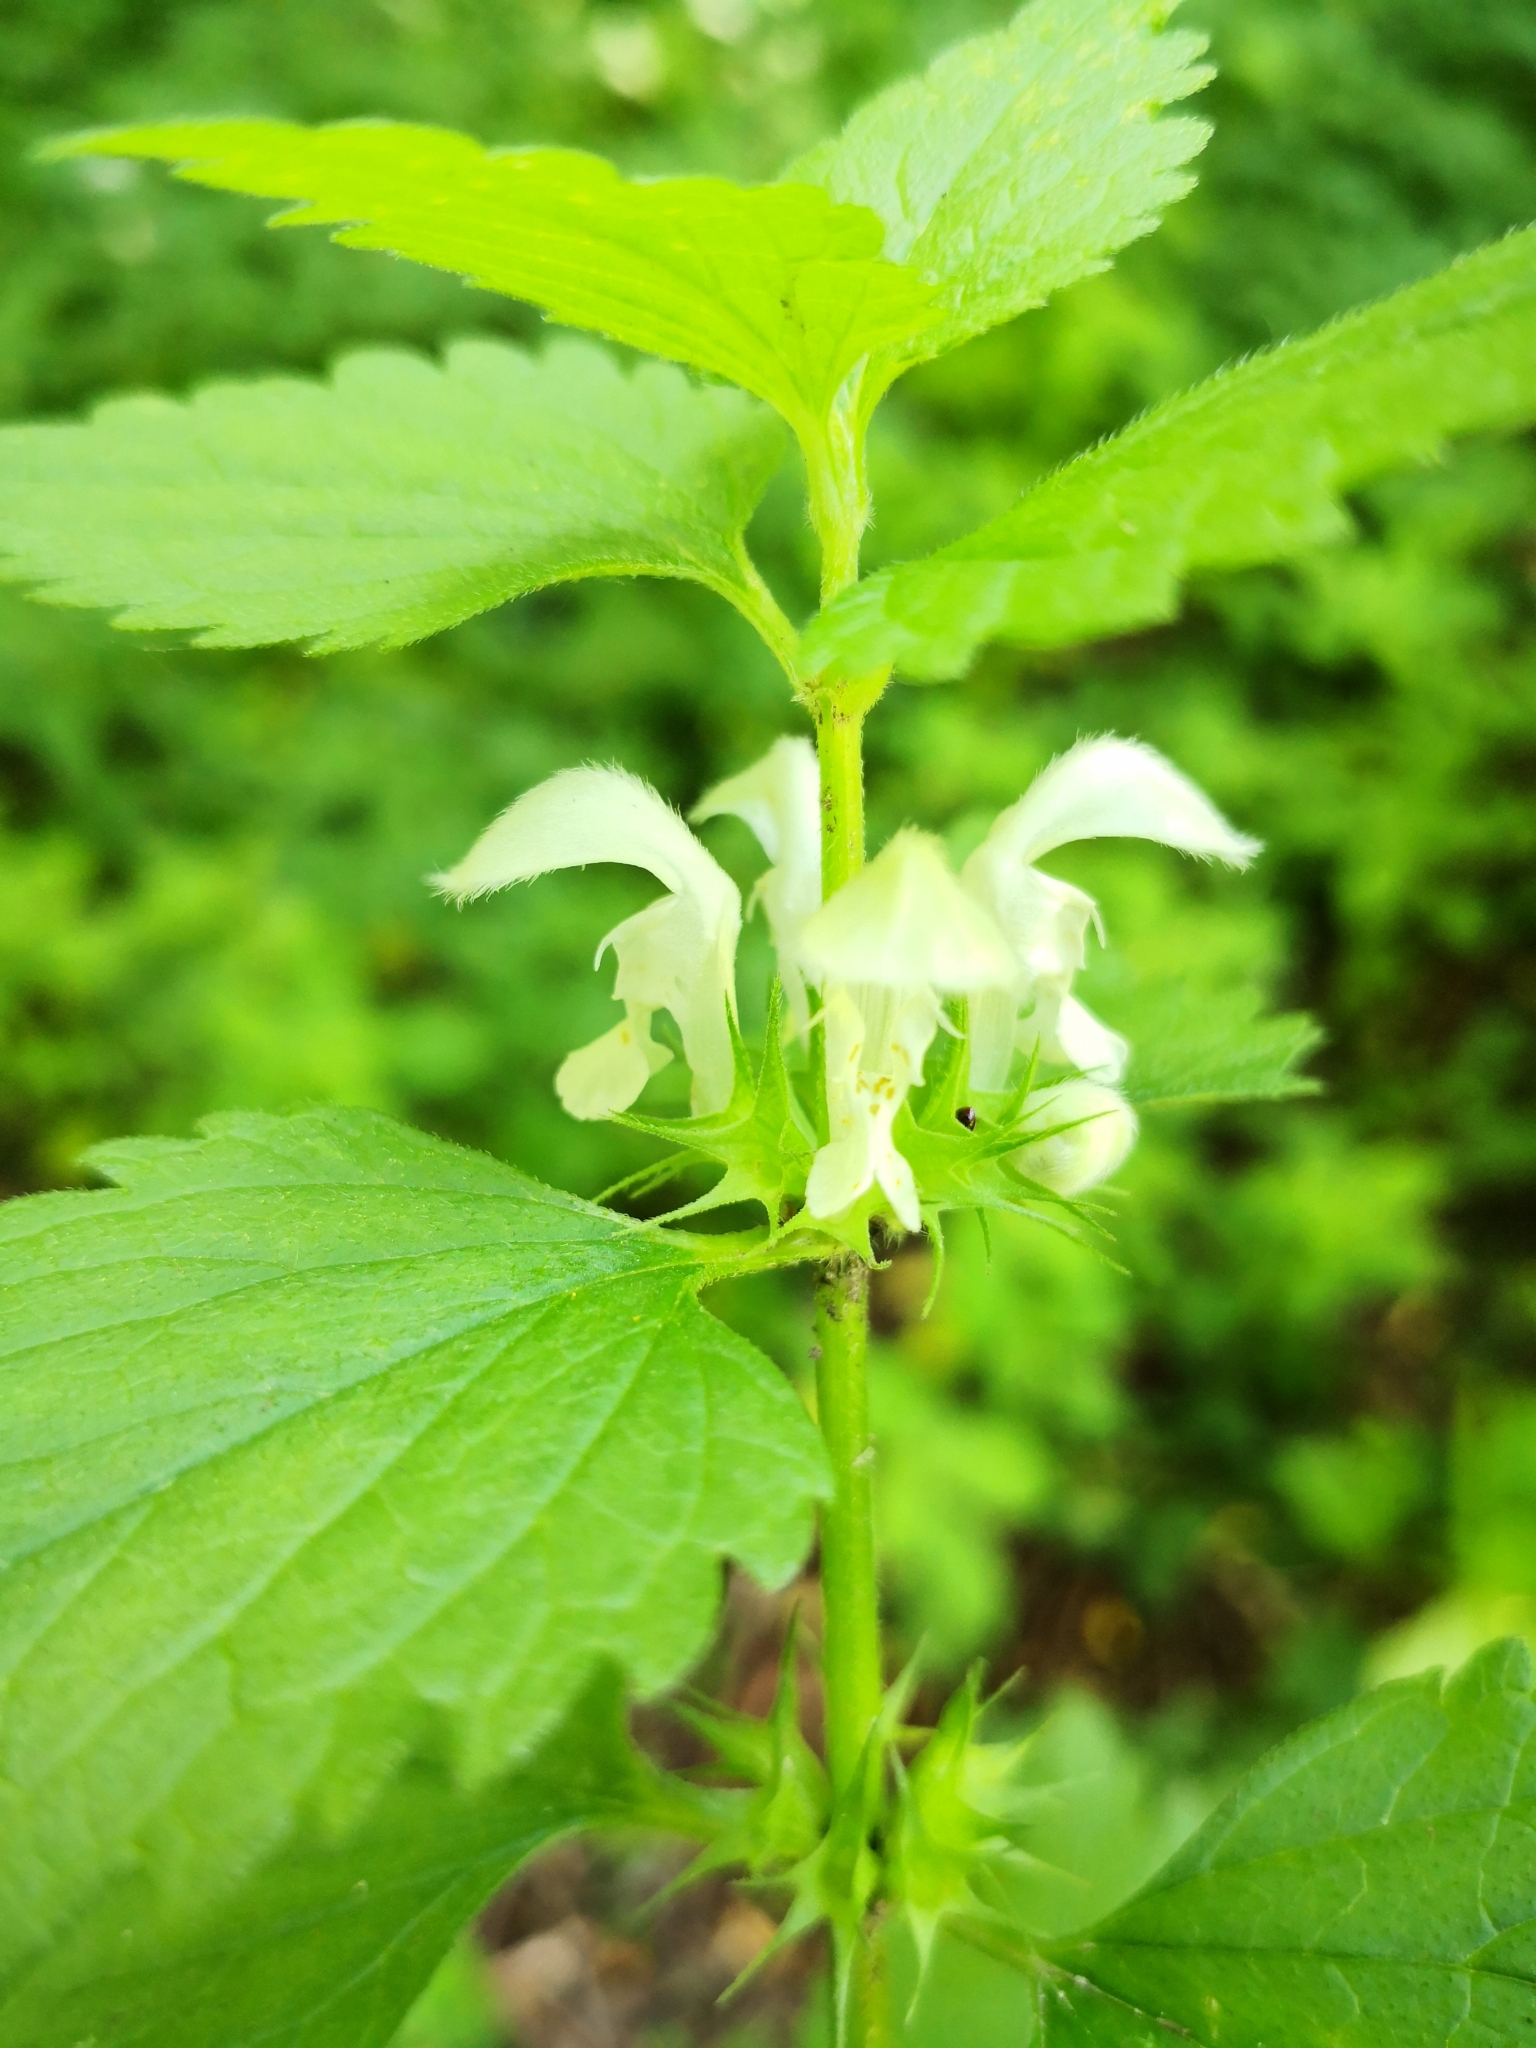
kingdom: Plantae
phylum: Tracheophyta
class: Magnoliopsida
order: Lamiales
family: Lamiaceae
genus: Lamium
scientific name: Lamium album
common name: White dead-nettle
